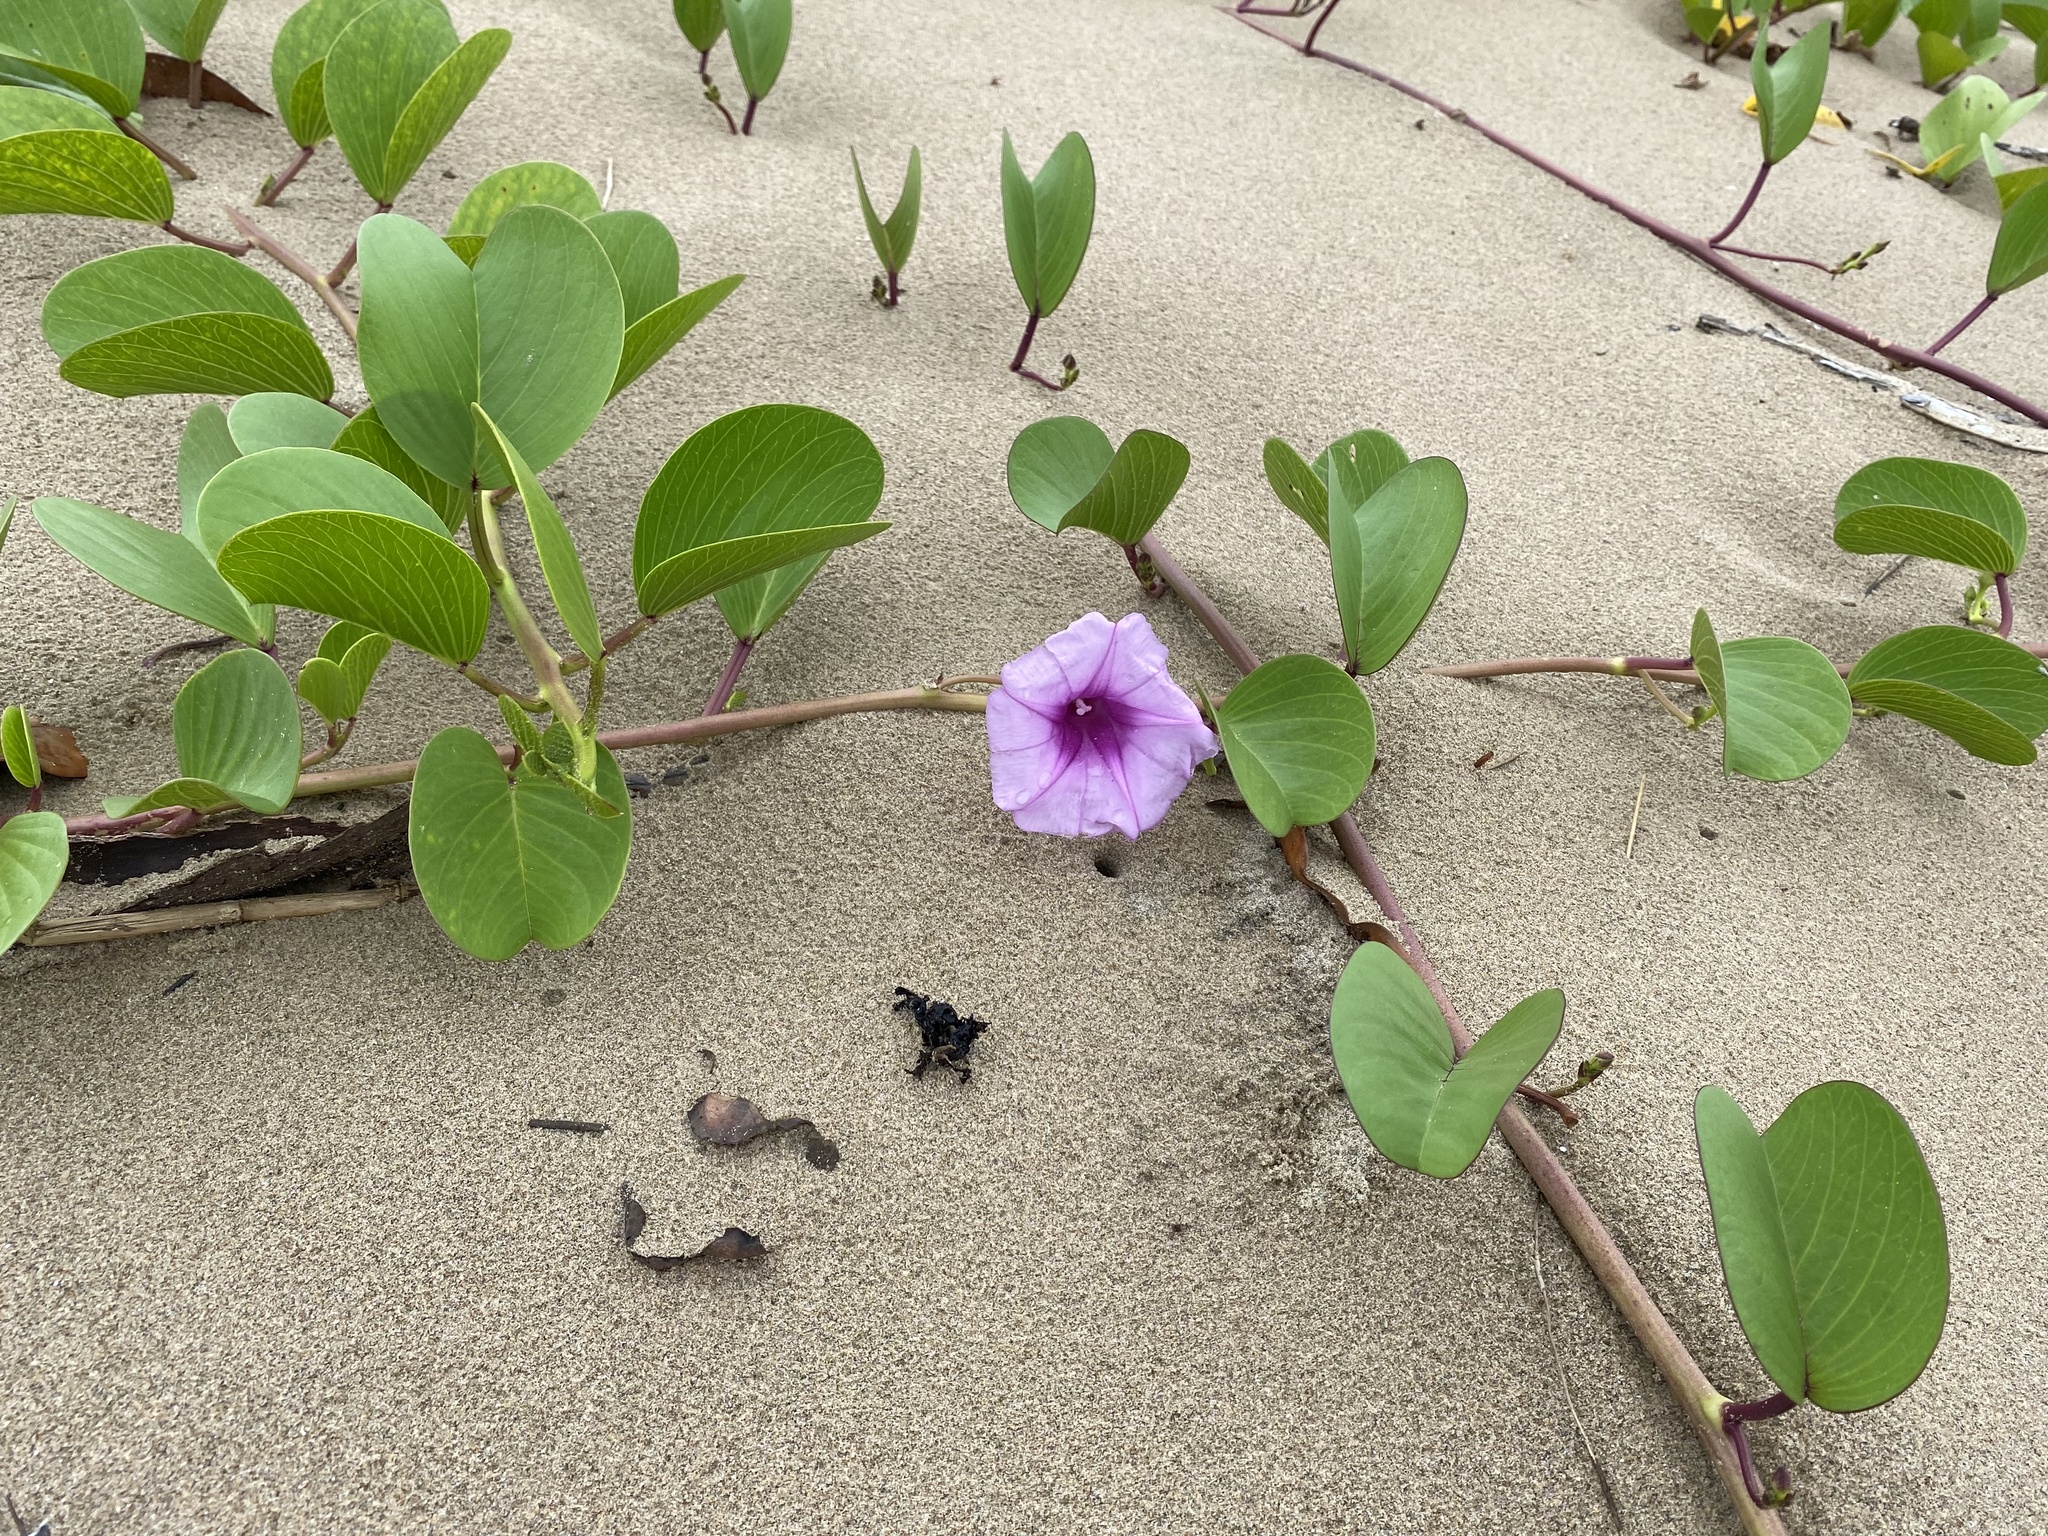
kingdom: Plantae
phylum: Tracheophyta
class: Magnoliopsida
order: Solanales
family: Convolvulaceae
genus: Ipomoea
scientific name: Ipomoea pes-caprae
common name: Beach morning glory
